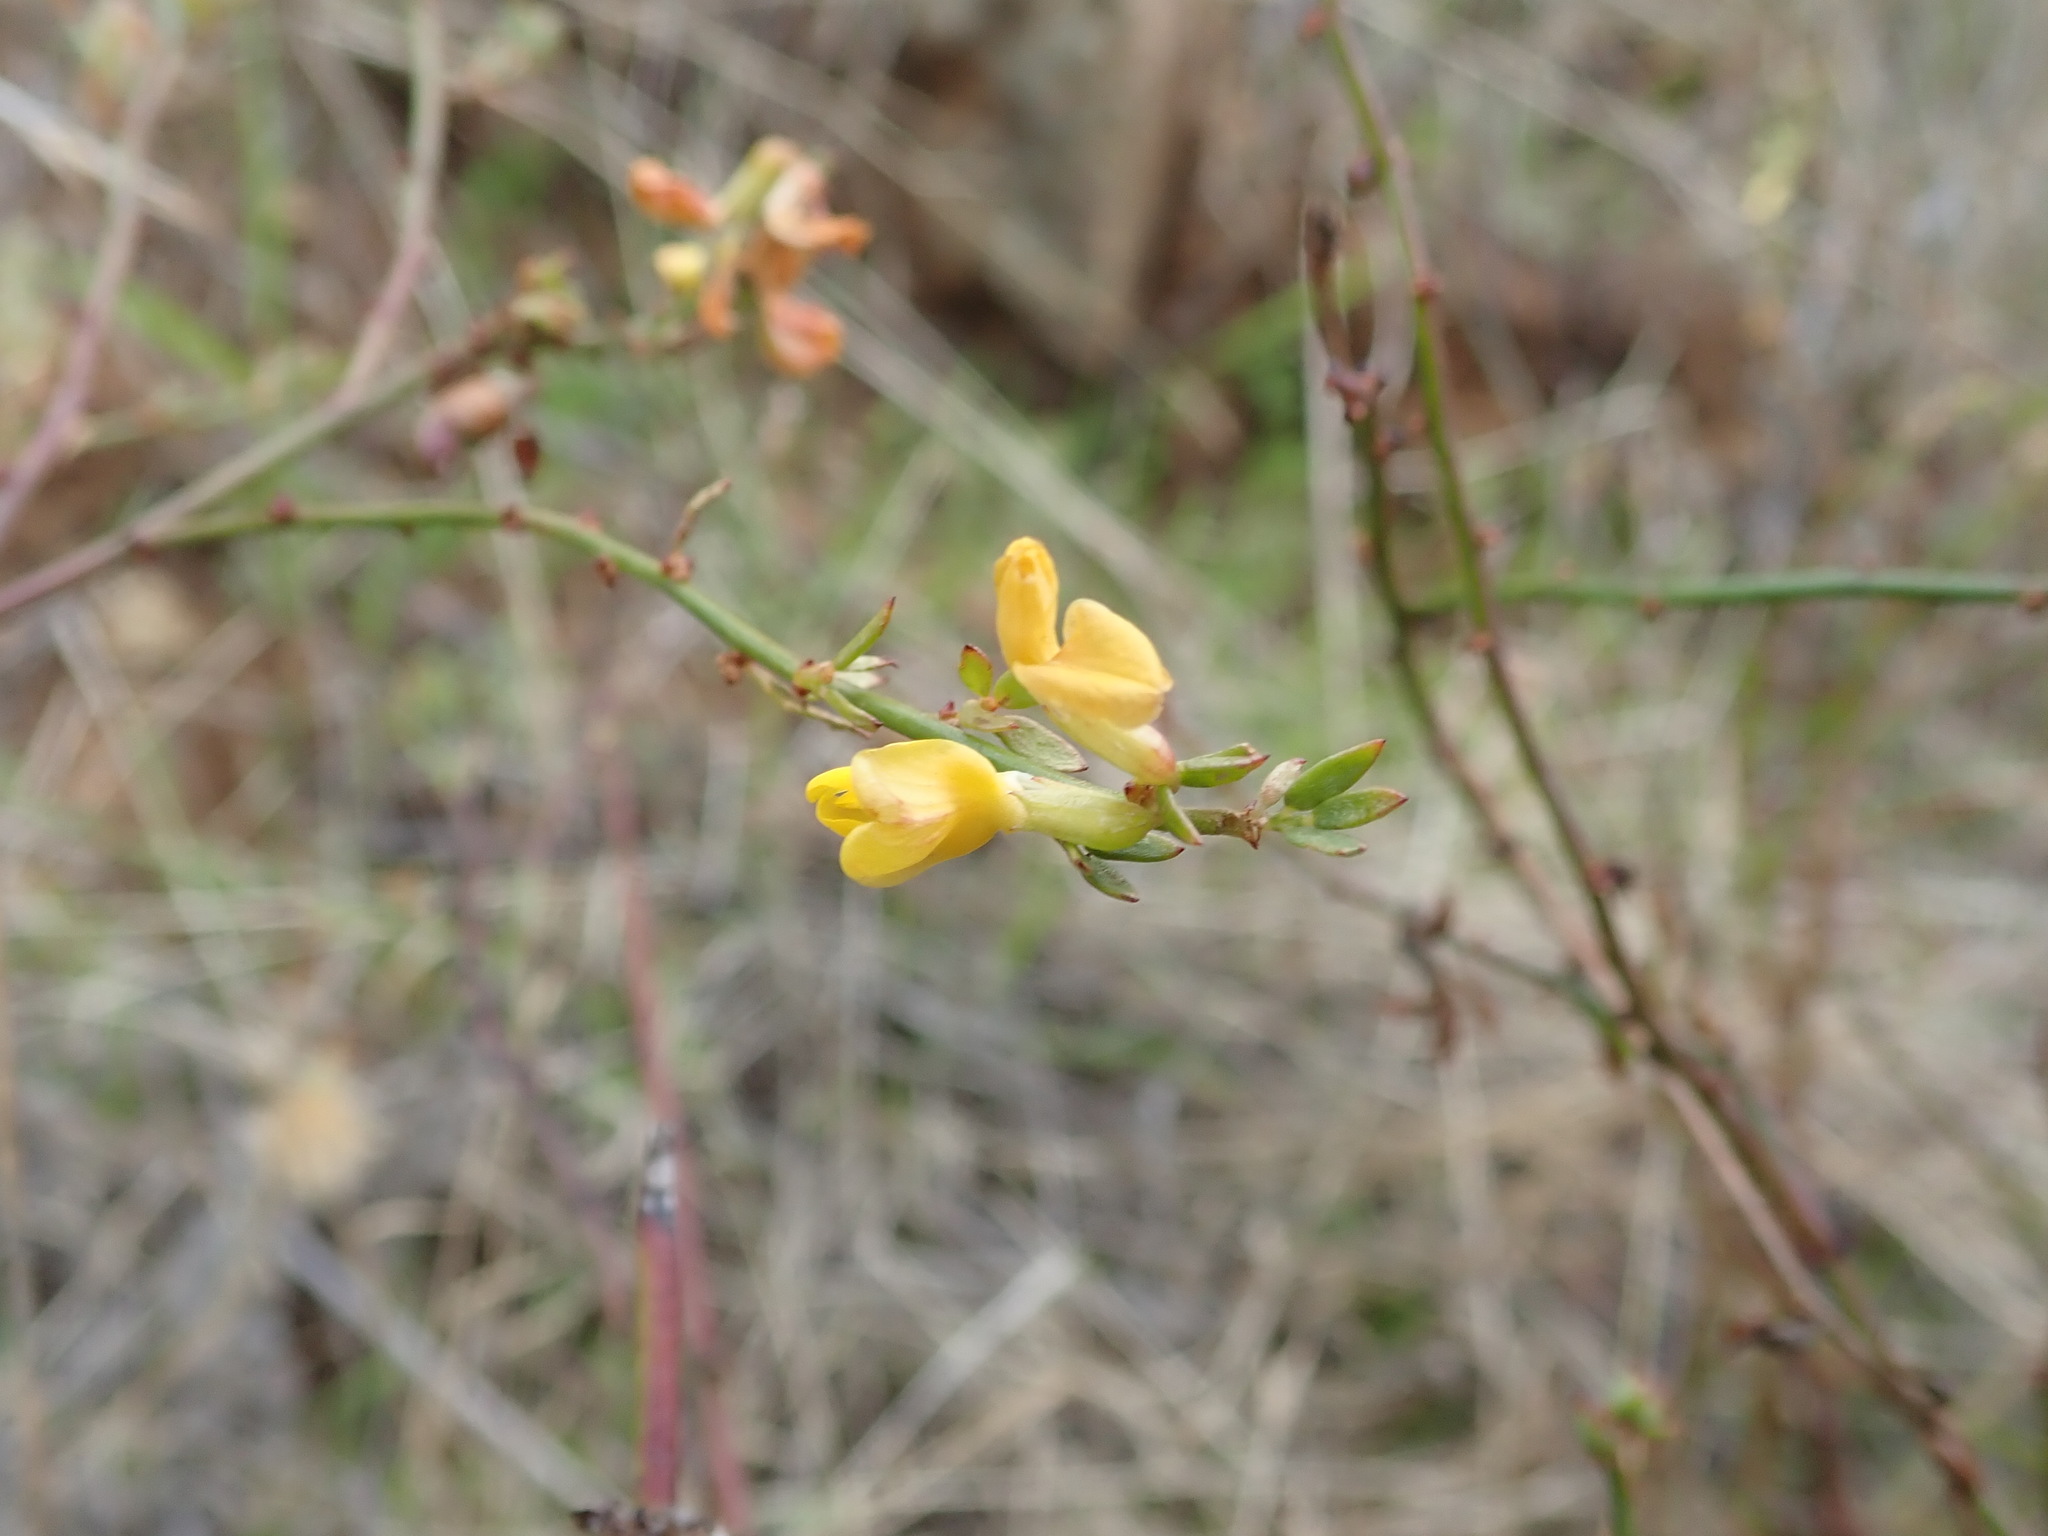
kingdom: Plantae
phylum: Tracheophyta
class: Magnoliopsida
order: Fabales
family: Fabaceae
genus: Acmispon
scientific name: Acmispon glaber
